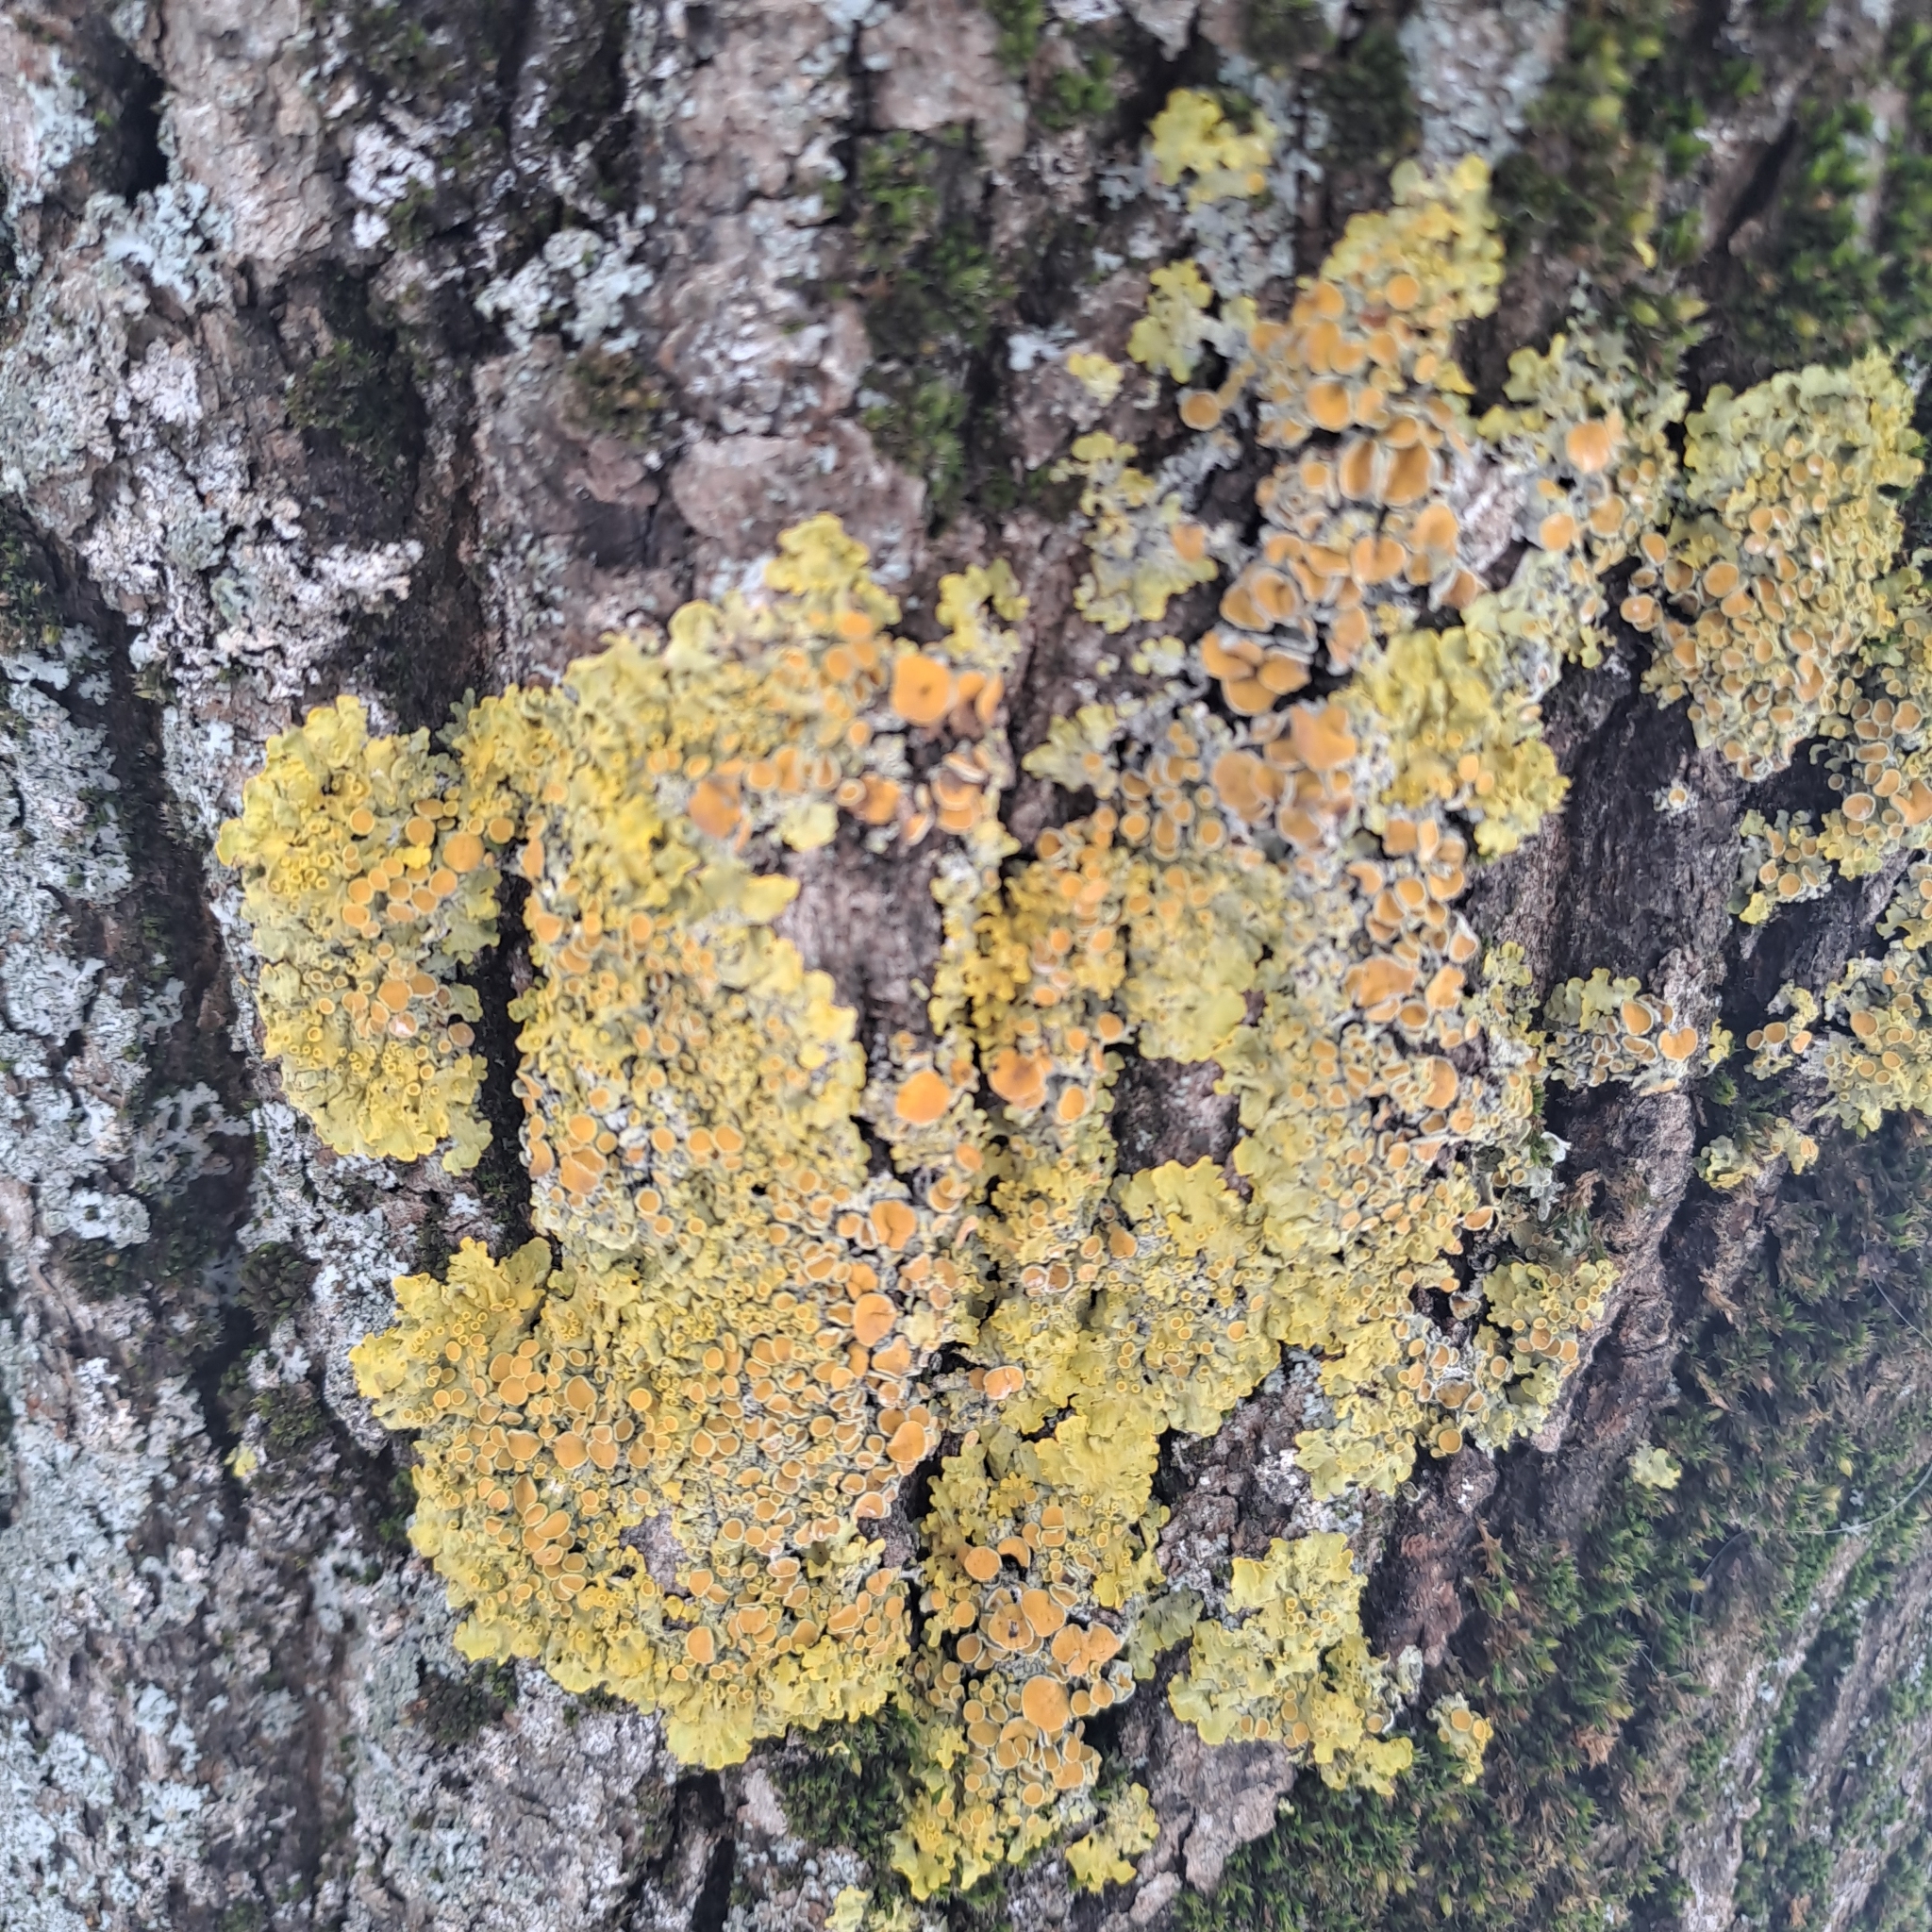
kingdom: Fungi
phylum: Basidiomycota
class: Agaricomycetes
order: Atheliales
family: Atheliaceae
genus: Athelia
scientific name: Athelia arachnoidea
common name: Candelabra duster
